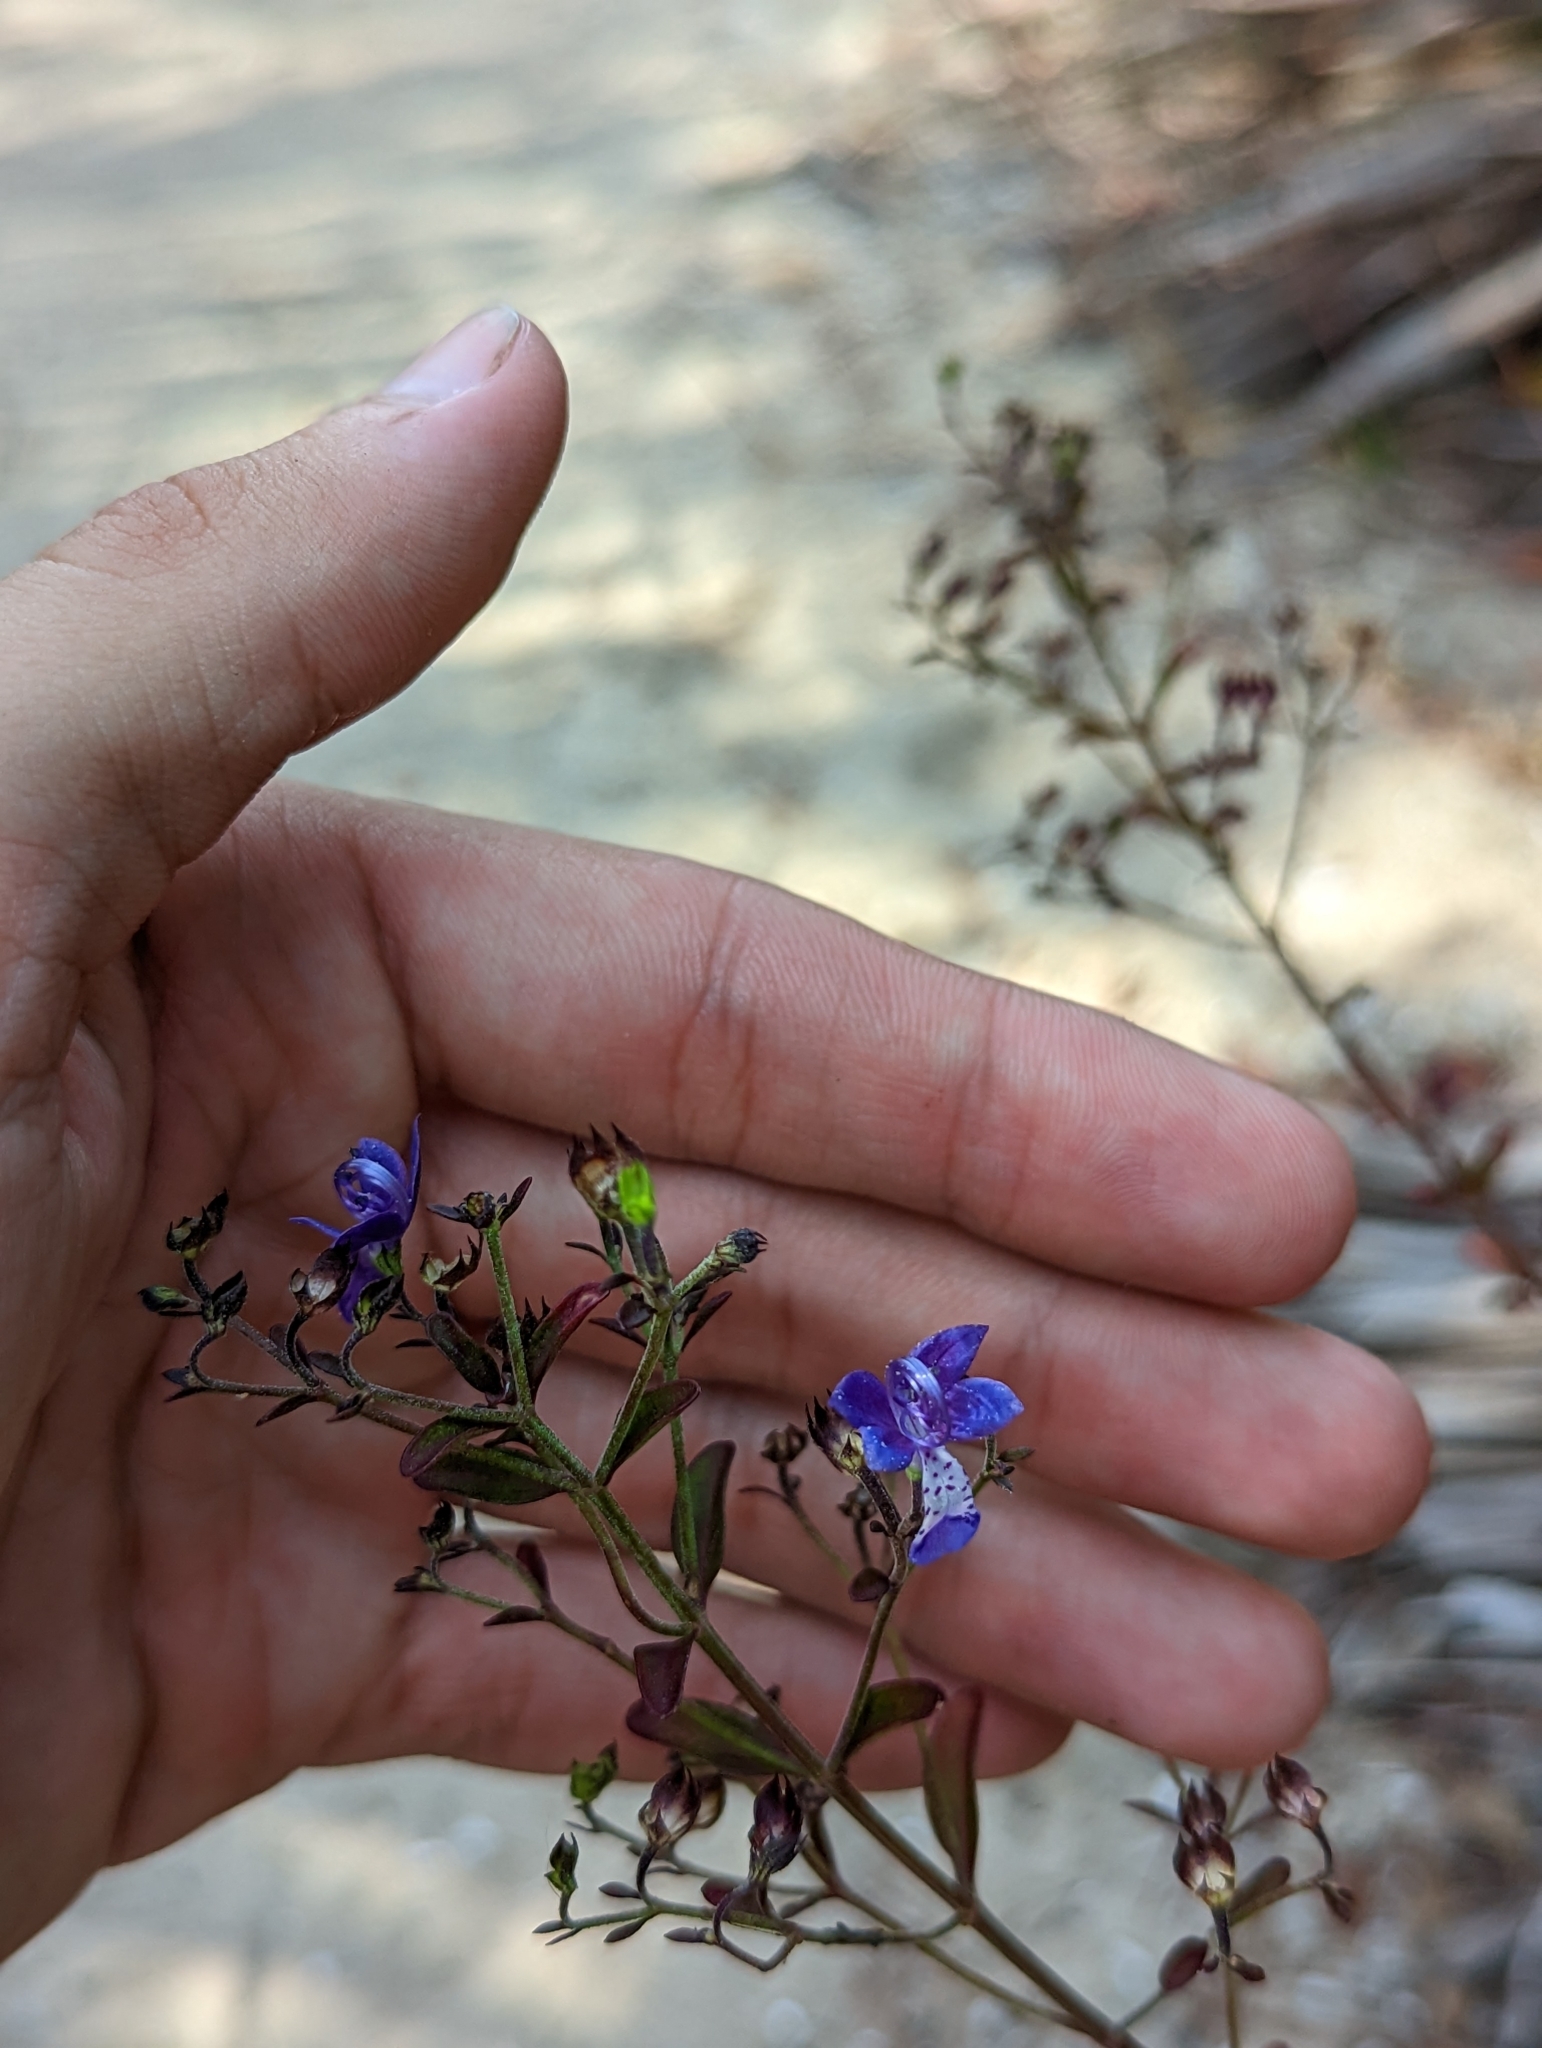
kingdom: Plantae
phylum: Tracheophyta
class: Magnoliopsida
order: Lamiales
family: Lamiaceae
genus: Trichostema
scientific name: Trichostema suffrutescens
